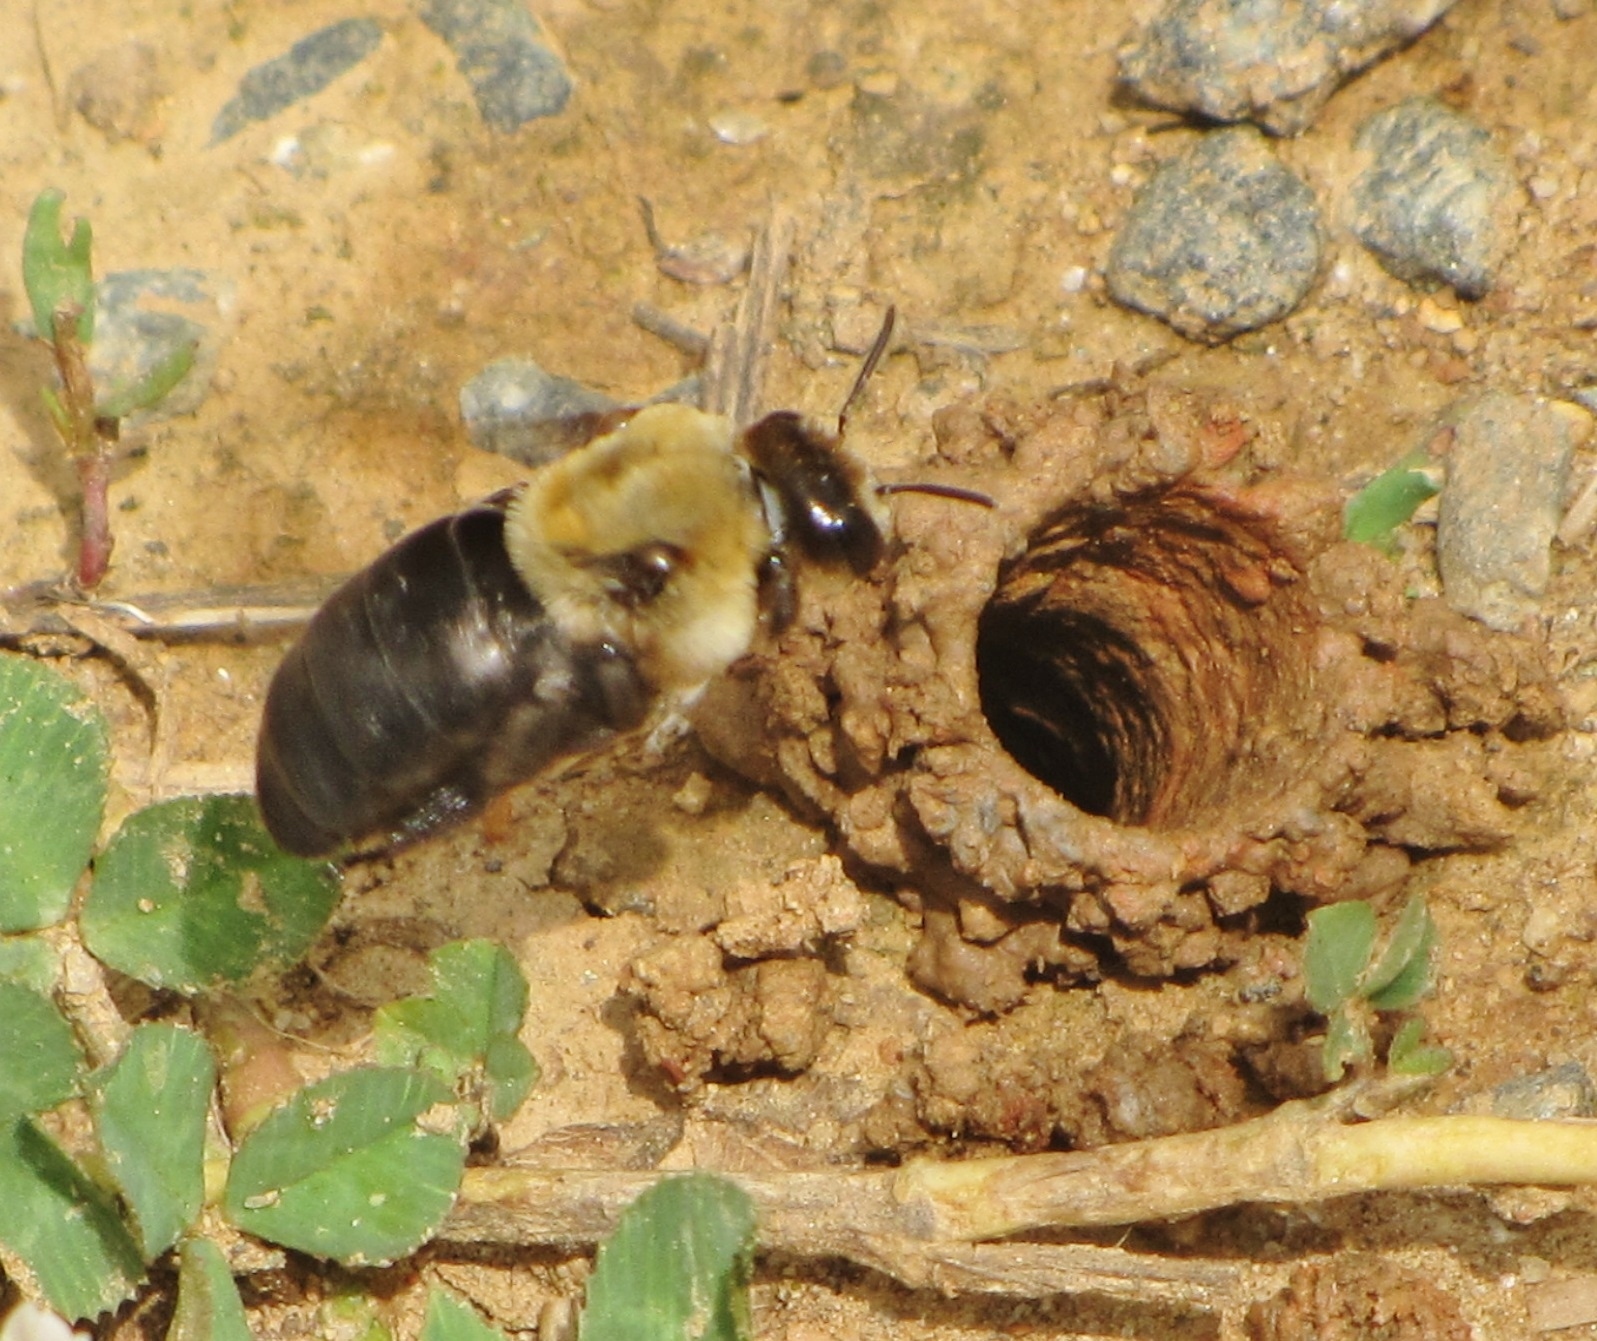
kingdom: Animalia
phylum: Arthropoda
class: Insecta
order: Hymenoptera
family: Apidae
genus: Ptilothrix
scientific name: Ptilothrix bombiformis
